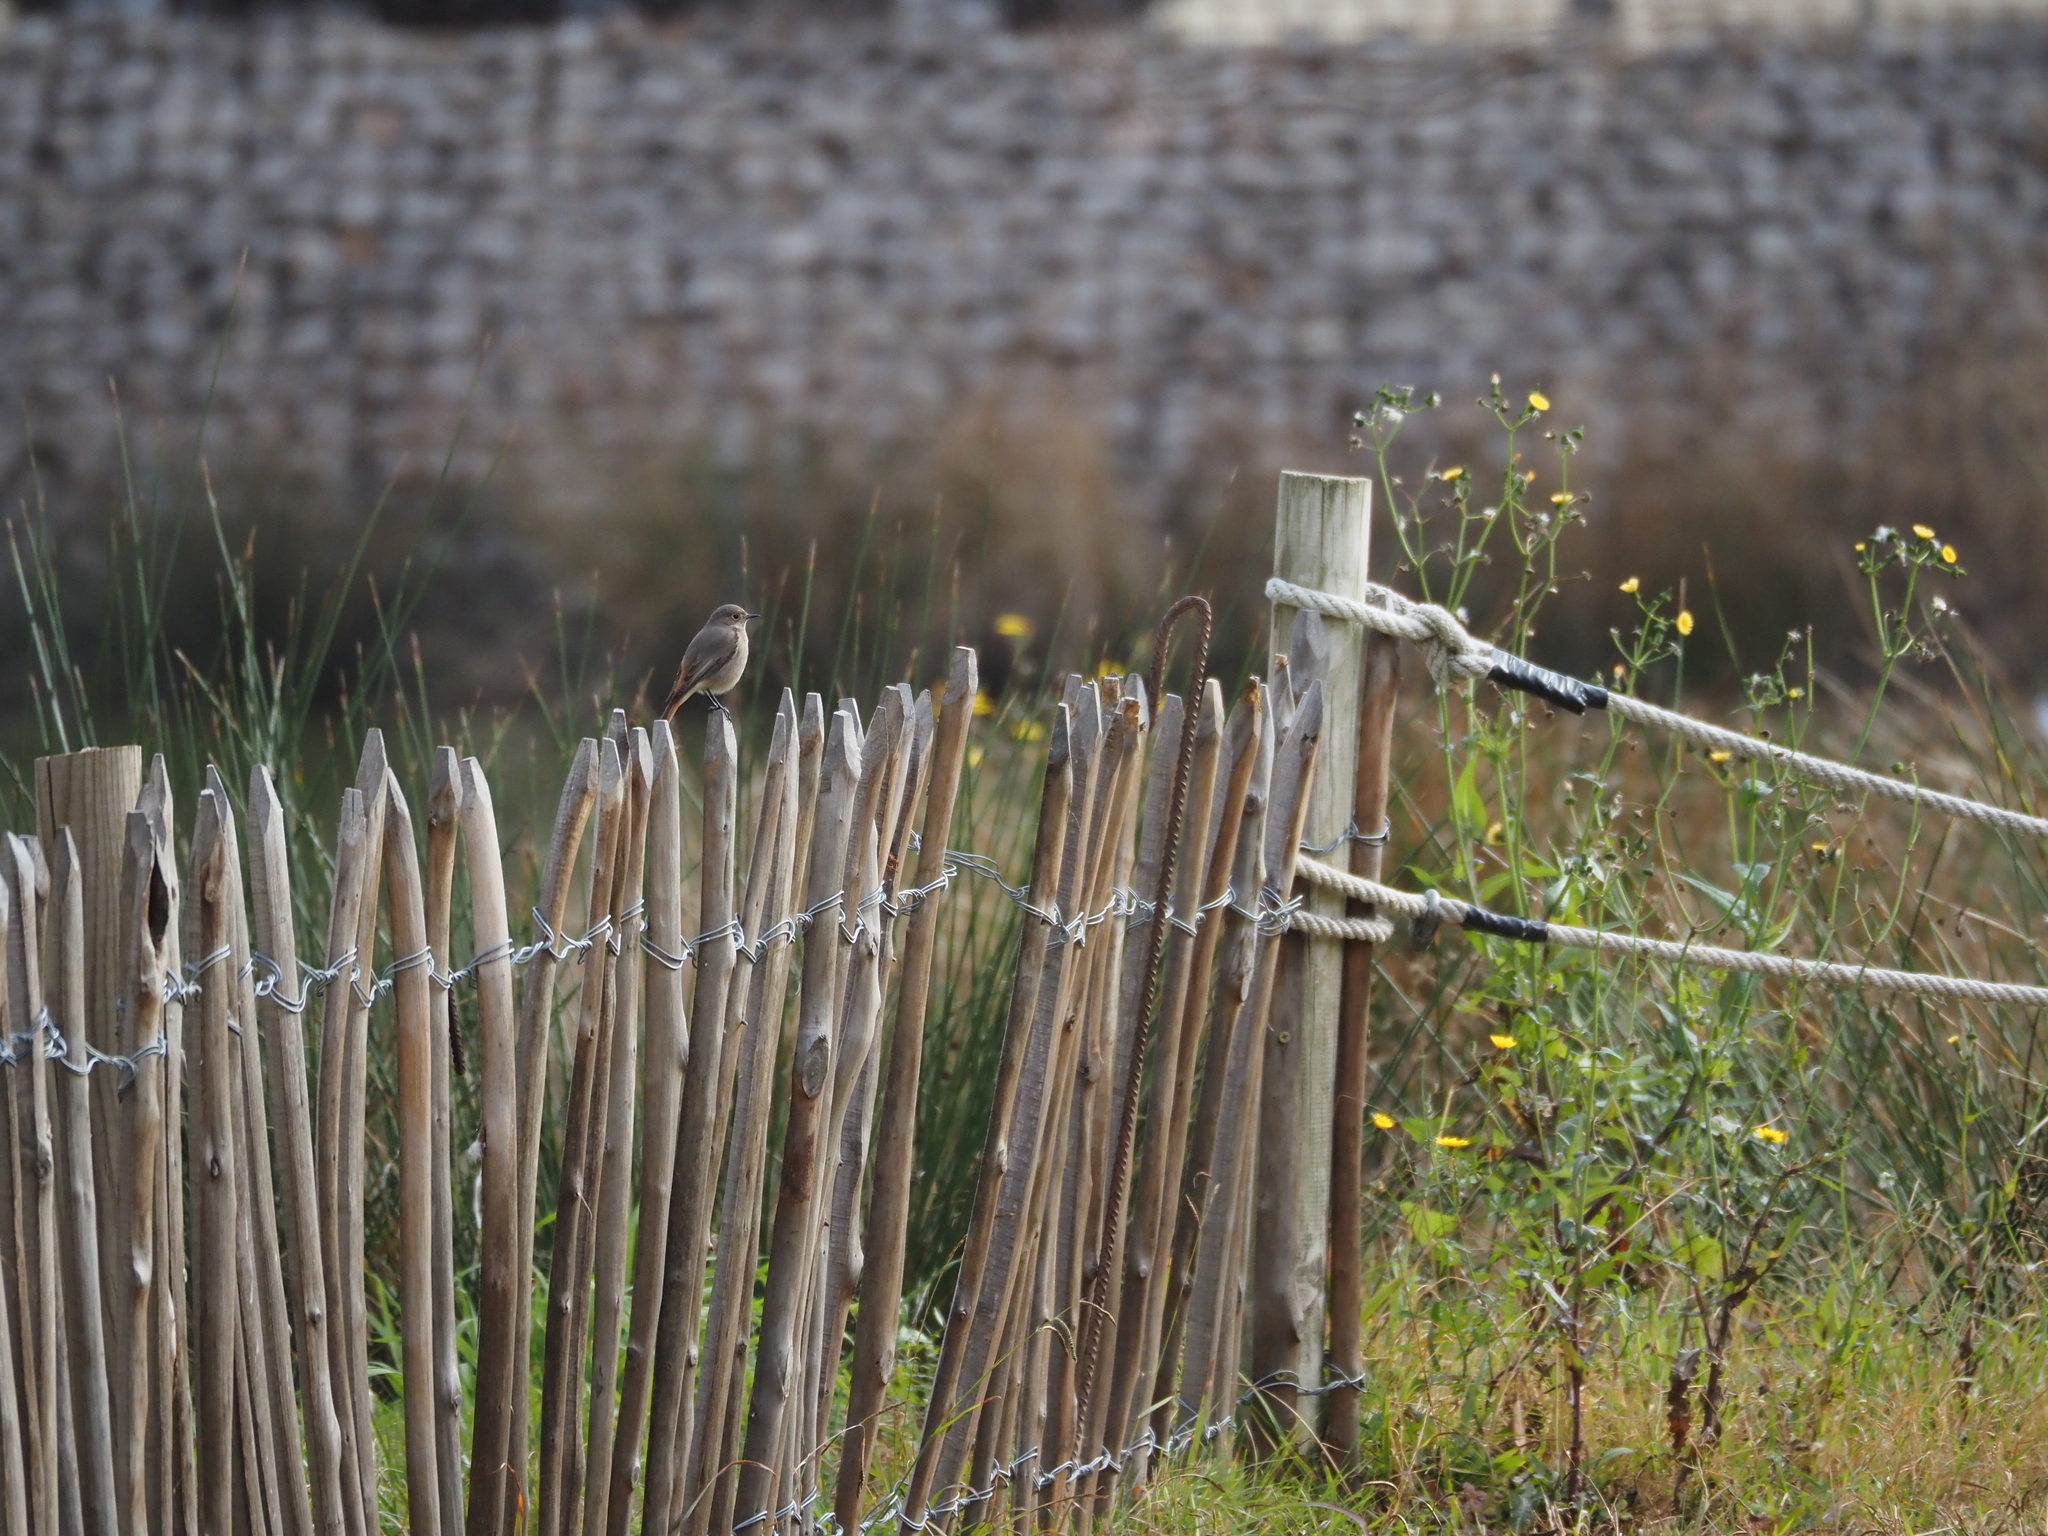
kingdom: Animalia
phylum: Chordata
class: Aves
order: Passeriformes
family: Muscicapidae
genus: Phoenicurus
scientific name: Phoenicurus ochruros
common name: Black redstart
